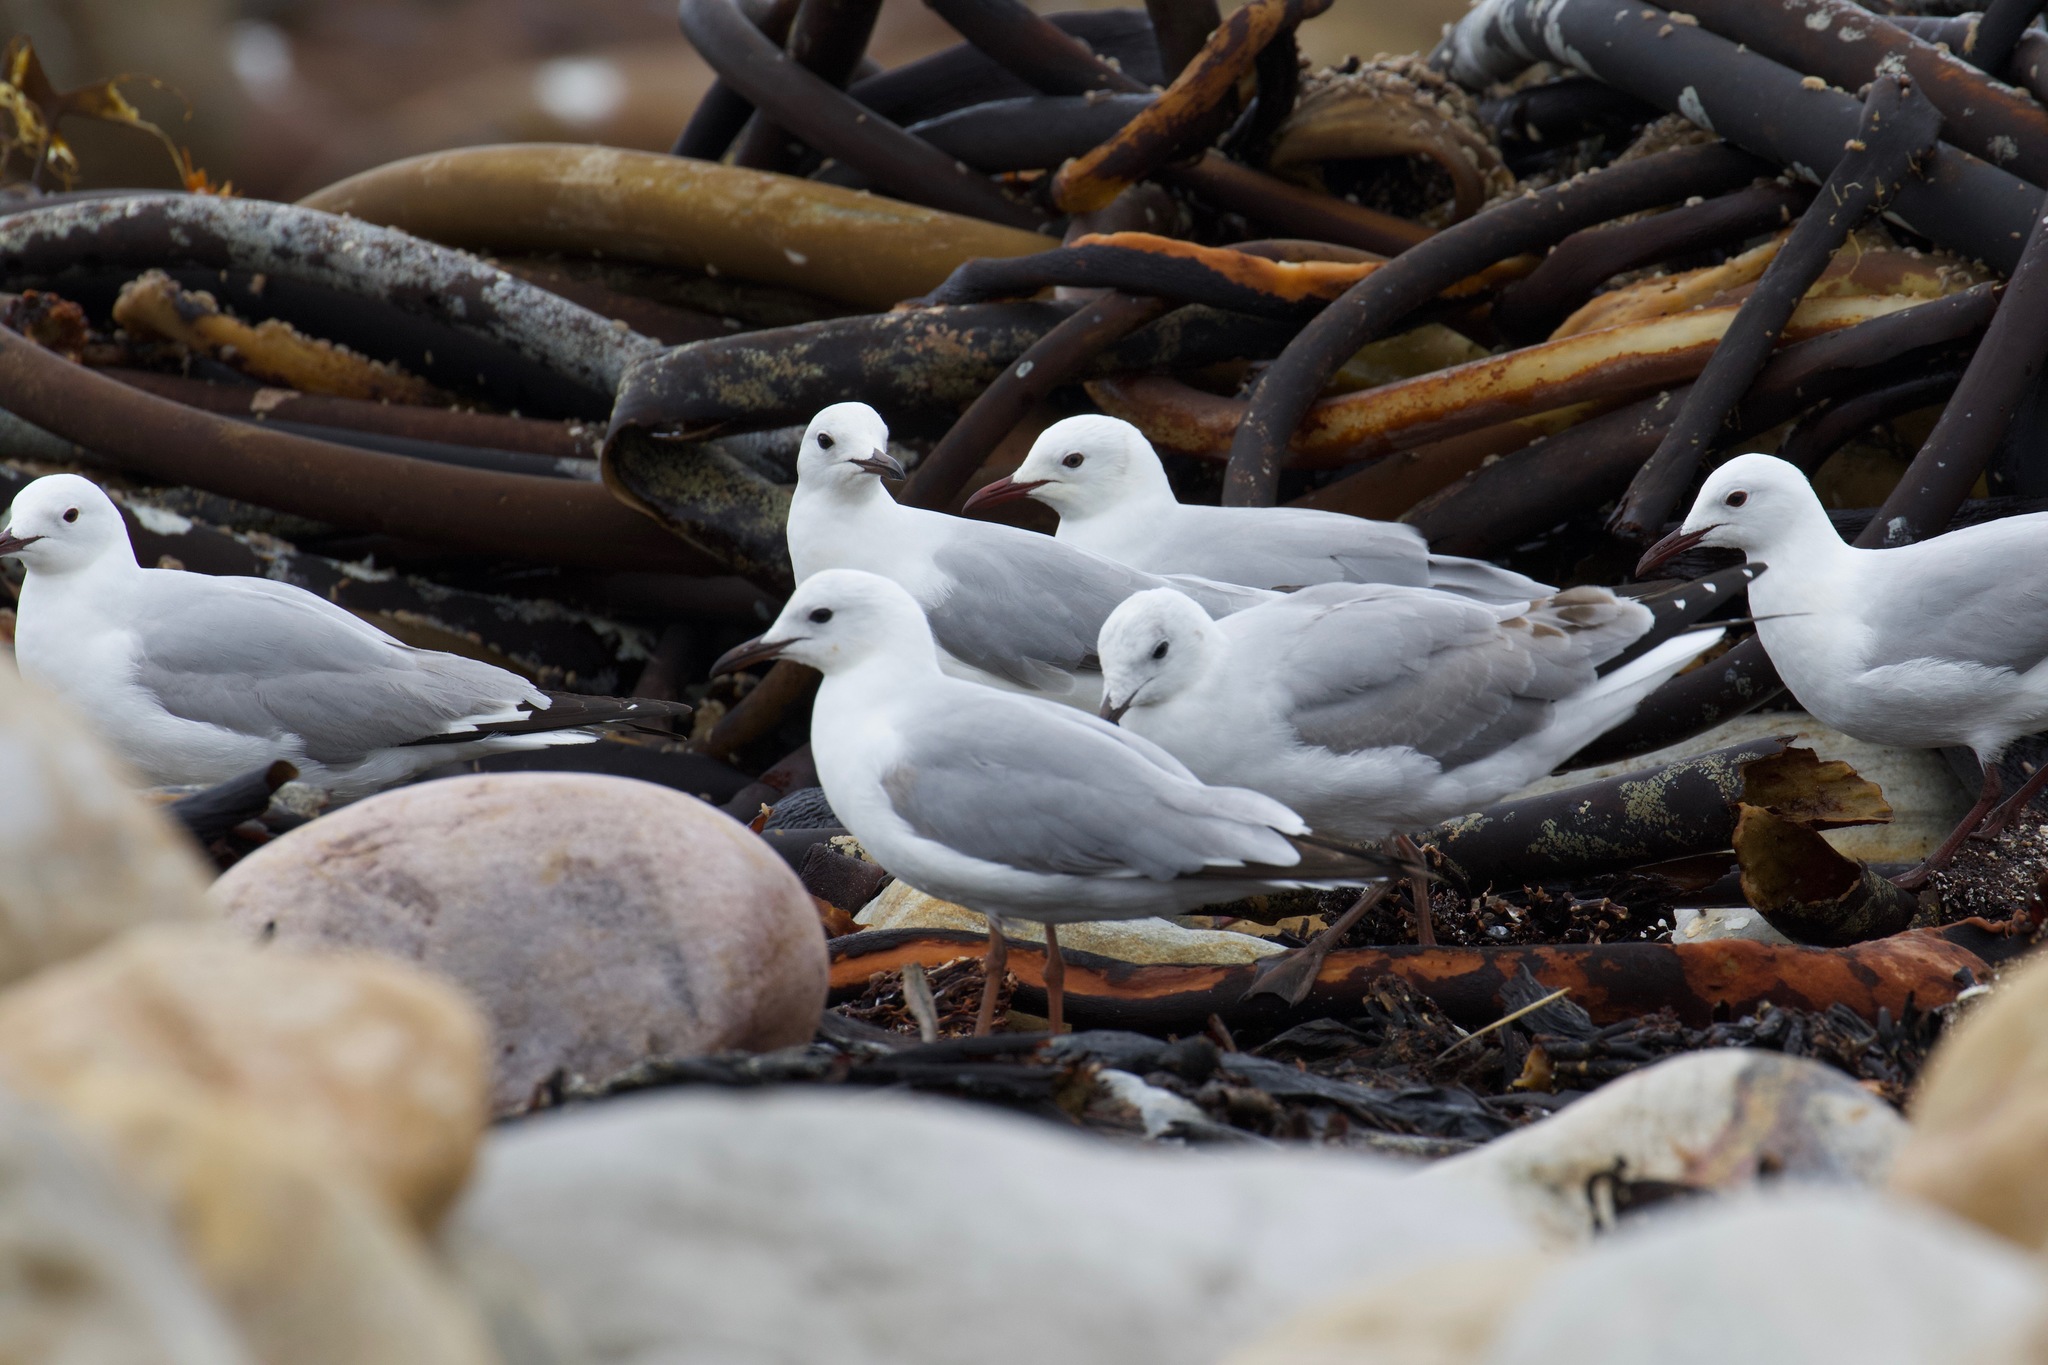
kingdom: Animalia
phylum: Chordata
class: Aves
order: Charadriiformes
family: Laridae
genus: Chroicocephalus
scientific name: Chroicocephalus hartlaubii
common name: Hartlaub's gull
